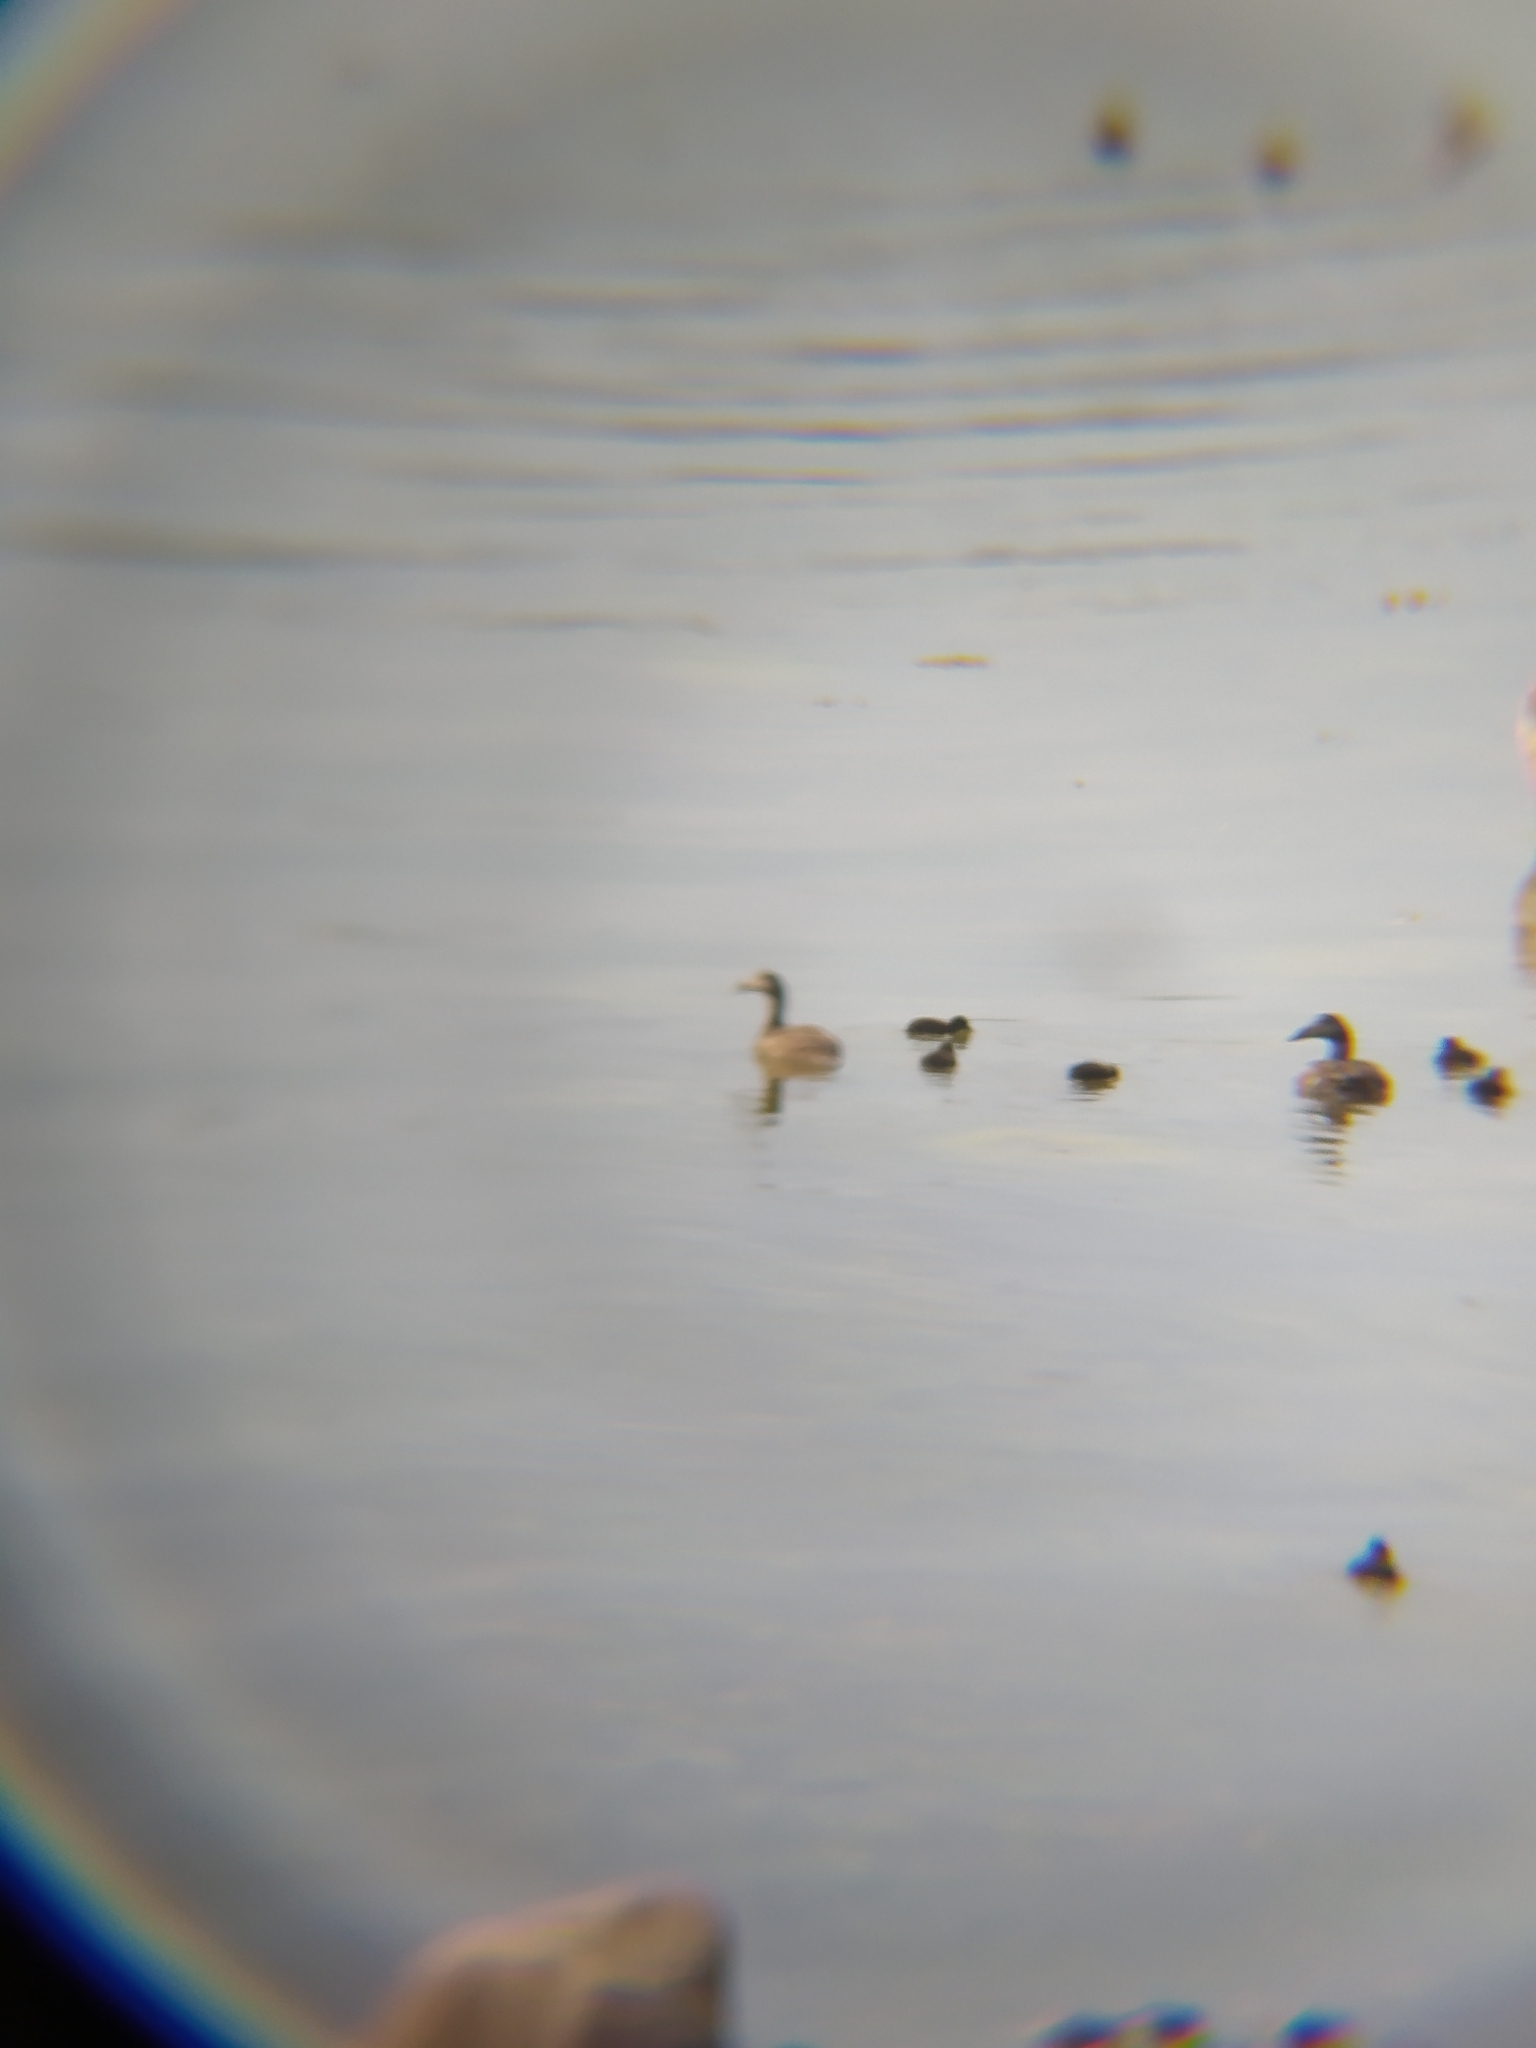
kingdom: Animalia
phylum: Chordata
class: Aves
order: Anseriformes
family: Anatidae
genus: Somateria
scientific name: Somateria mollissima
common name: Common eider
